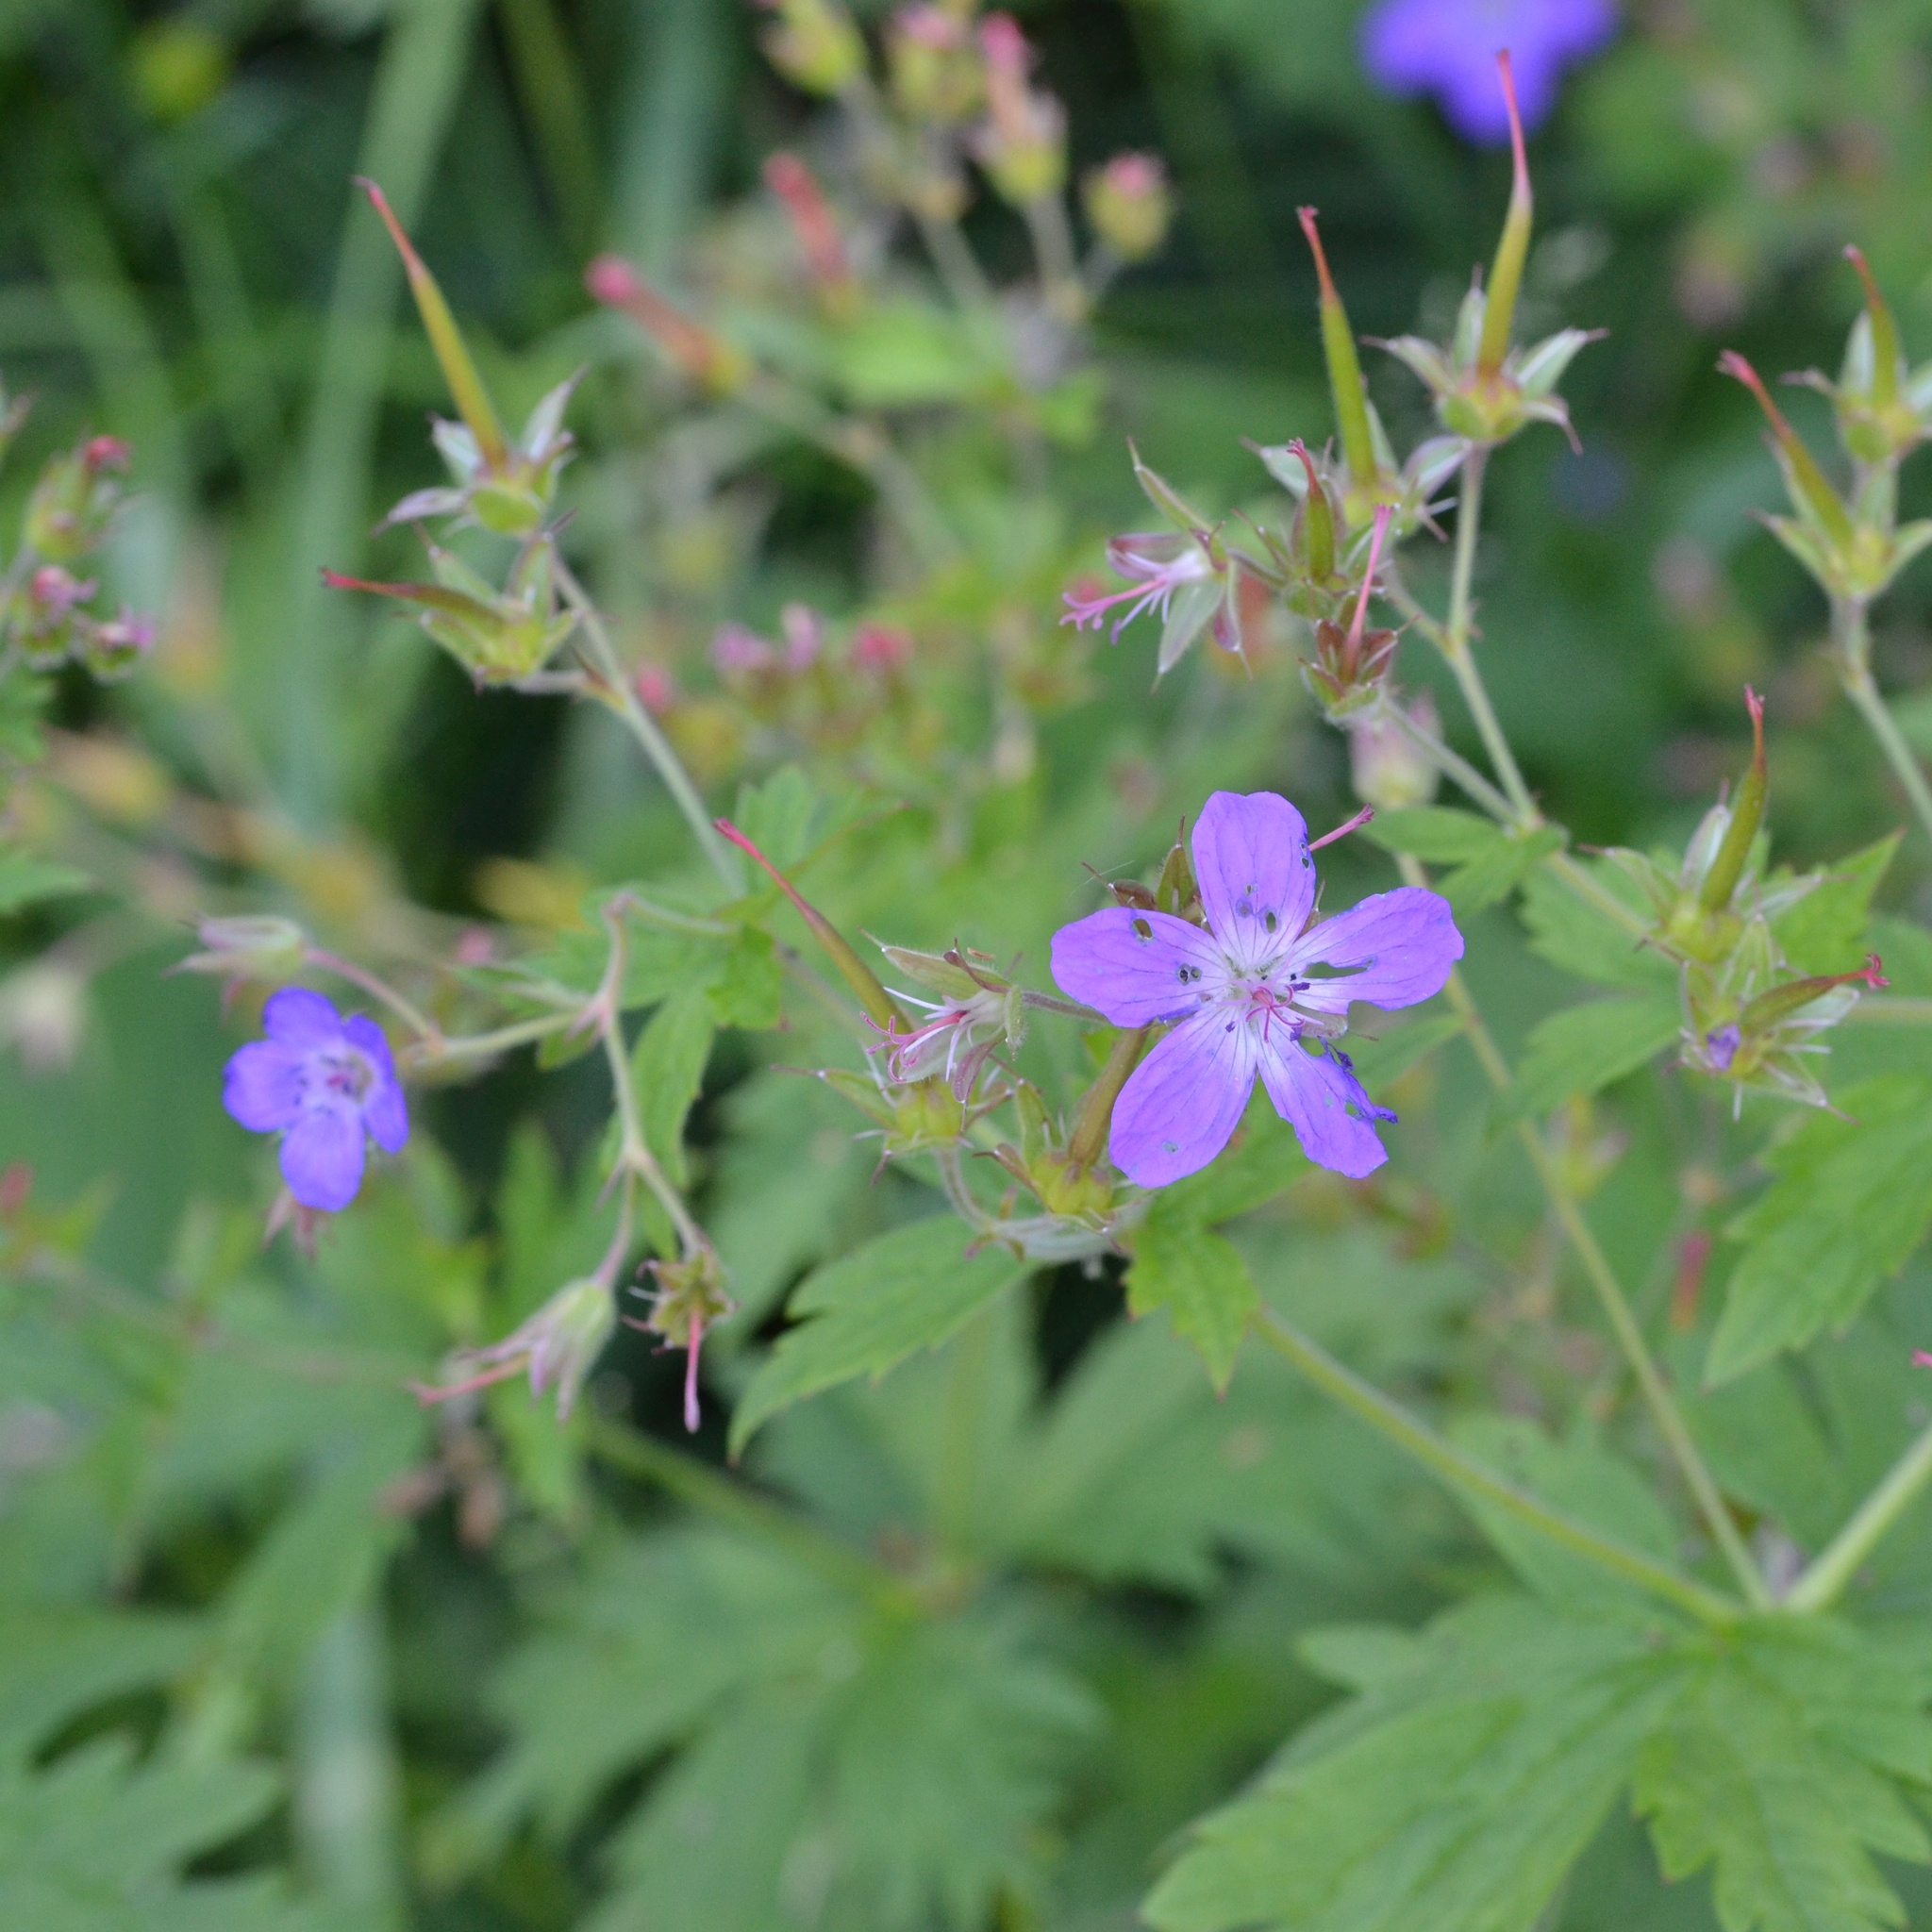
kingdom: Plantae
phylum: Tracheophyta
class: Magnoliopsida
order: Geraniales
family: Geraniaceae
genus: Geranium
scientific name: Geranium sylvaticum
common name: Wood crane's-bill
